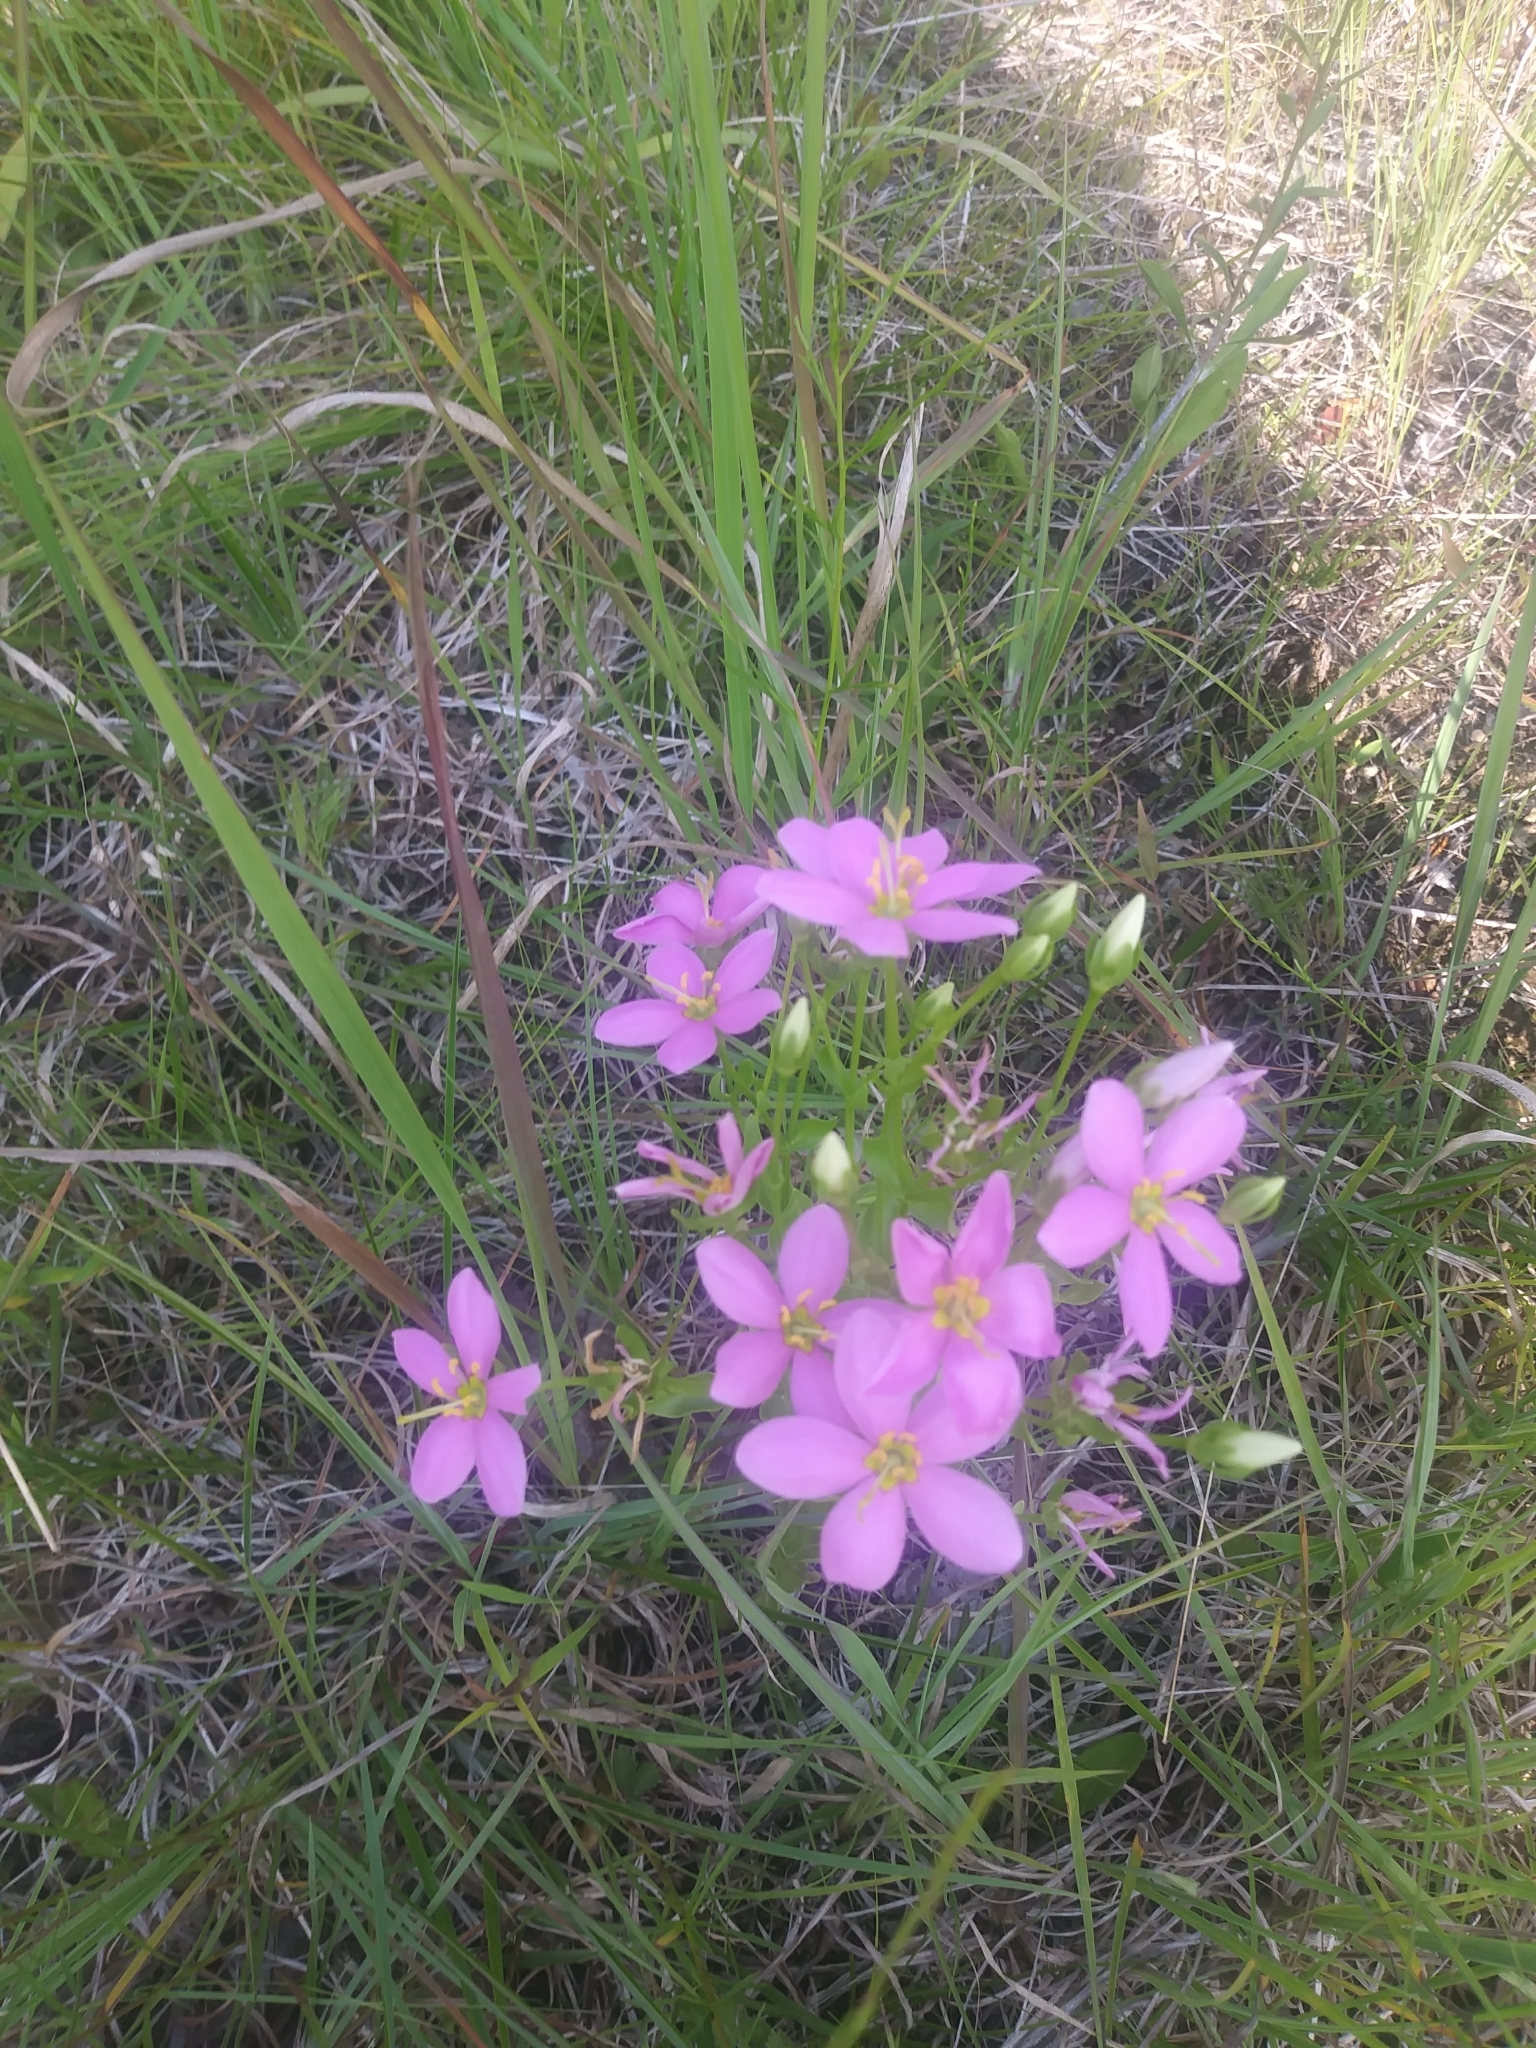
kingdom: Plantae
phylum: Tracheophyta
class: Magnoliopsida
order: Gentianales
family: Gentianaceae
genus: Sabatia
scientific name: Sabatia angularis
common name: Rose-pink
